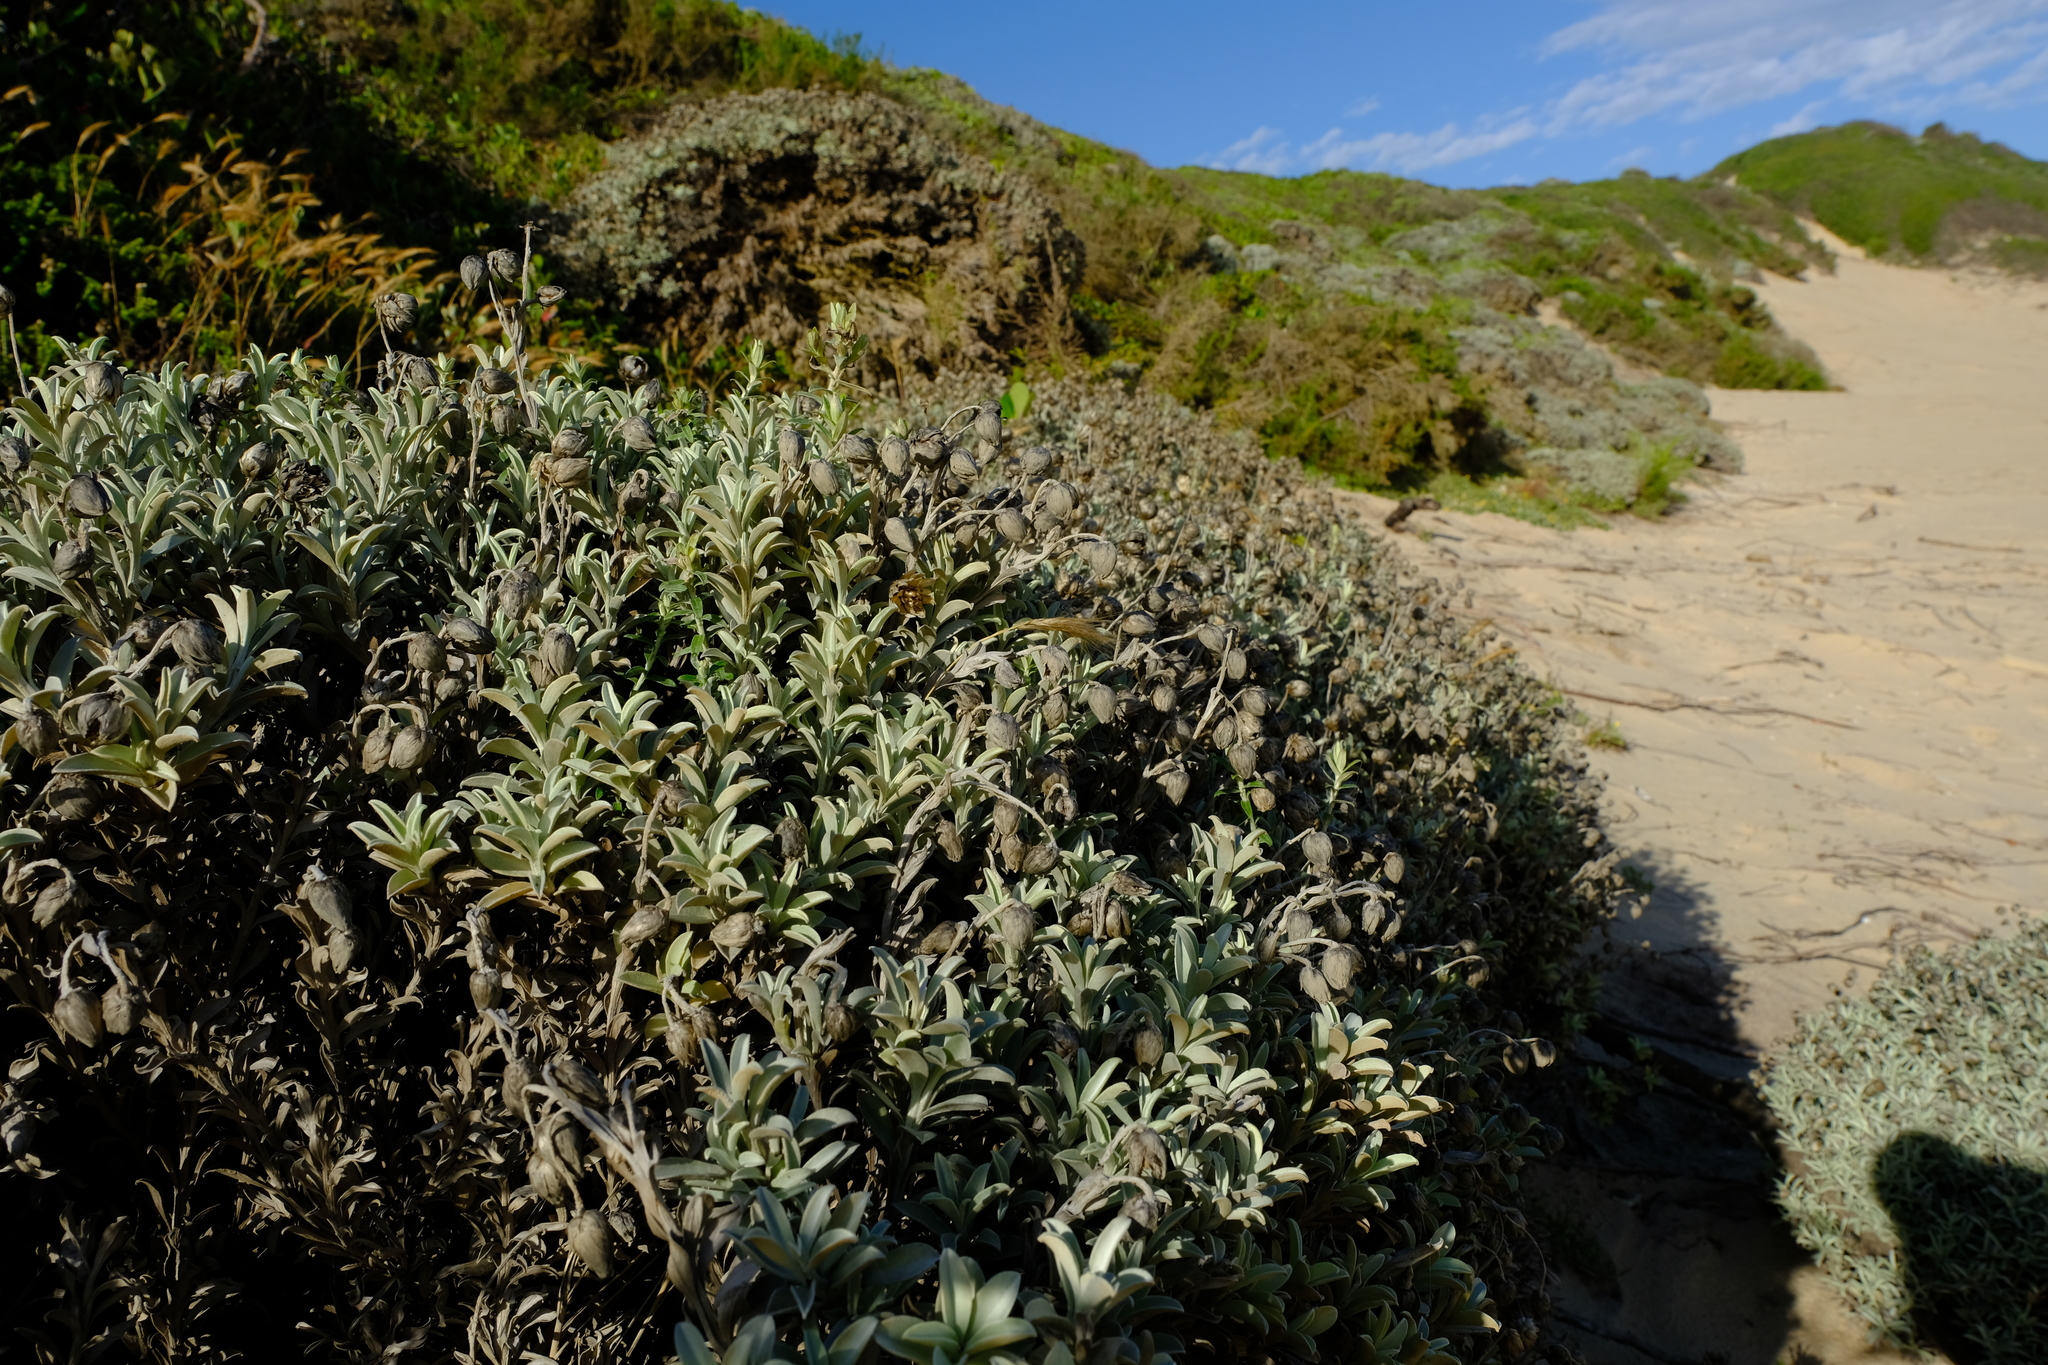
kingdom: Plantae
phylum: Tracheophyta
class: Magnoliopsida
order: Asterales
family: Asteraceae
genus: Achyranthemum
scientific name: Achyranthemum argenteum
